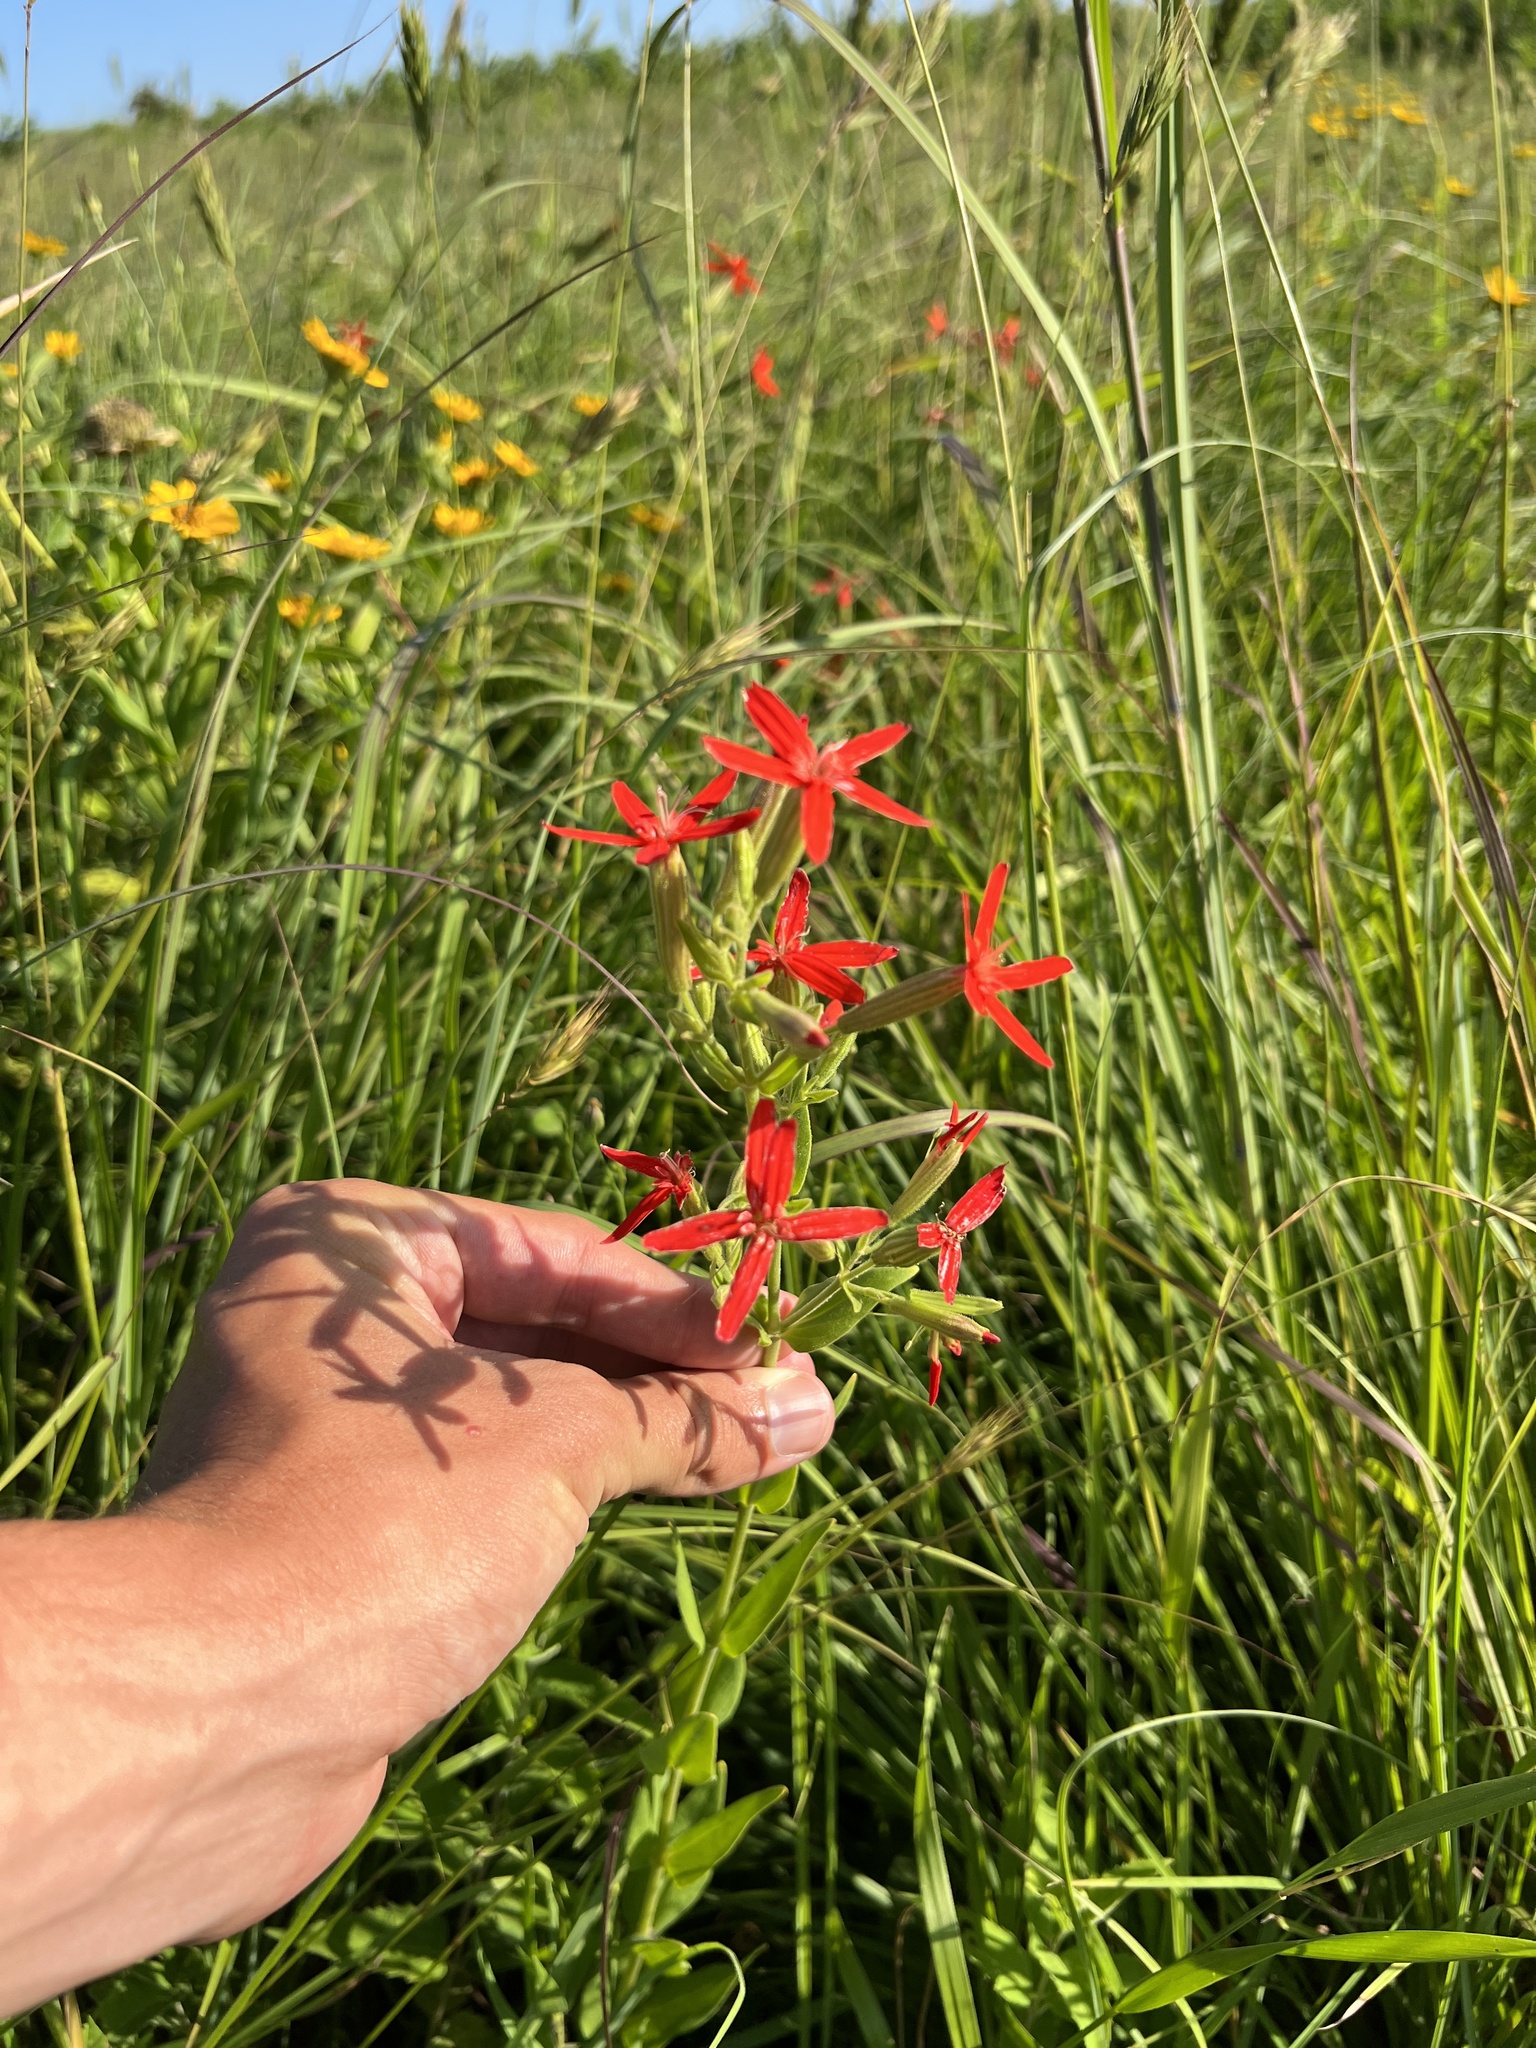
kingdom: Plantae
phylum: Tracheophyta
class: Magnoliopsida
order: Caryophyllales
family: Caryophyllaceae
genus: Silene
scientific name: Silene regia
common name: Royal catchfly
